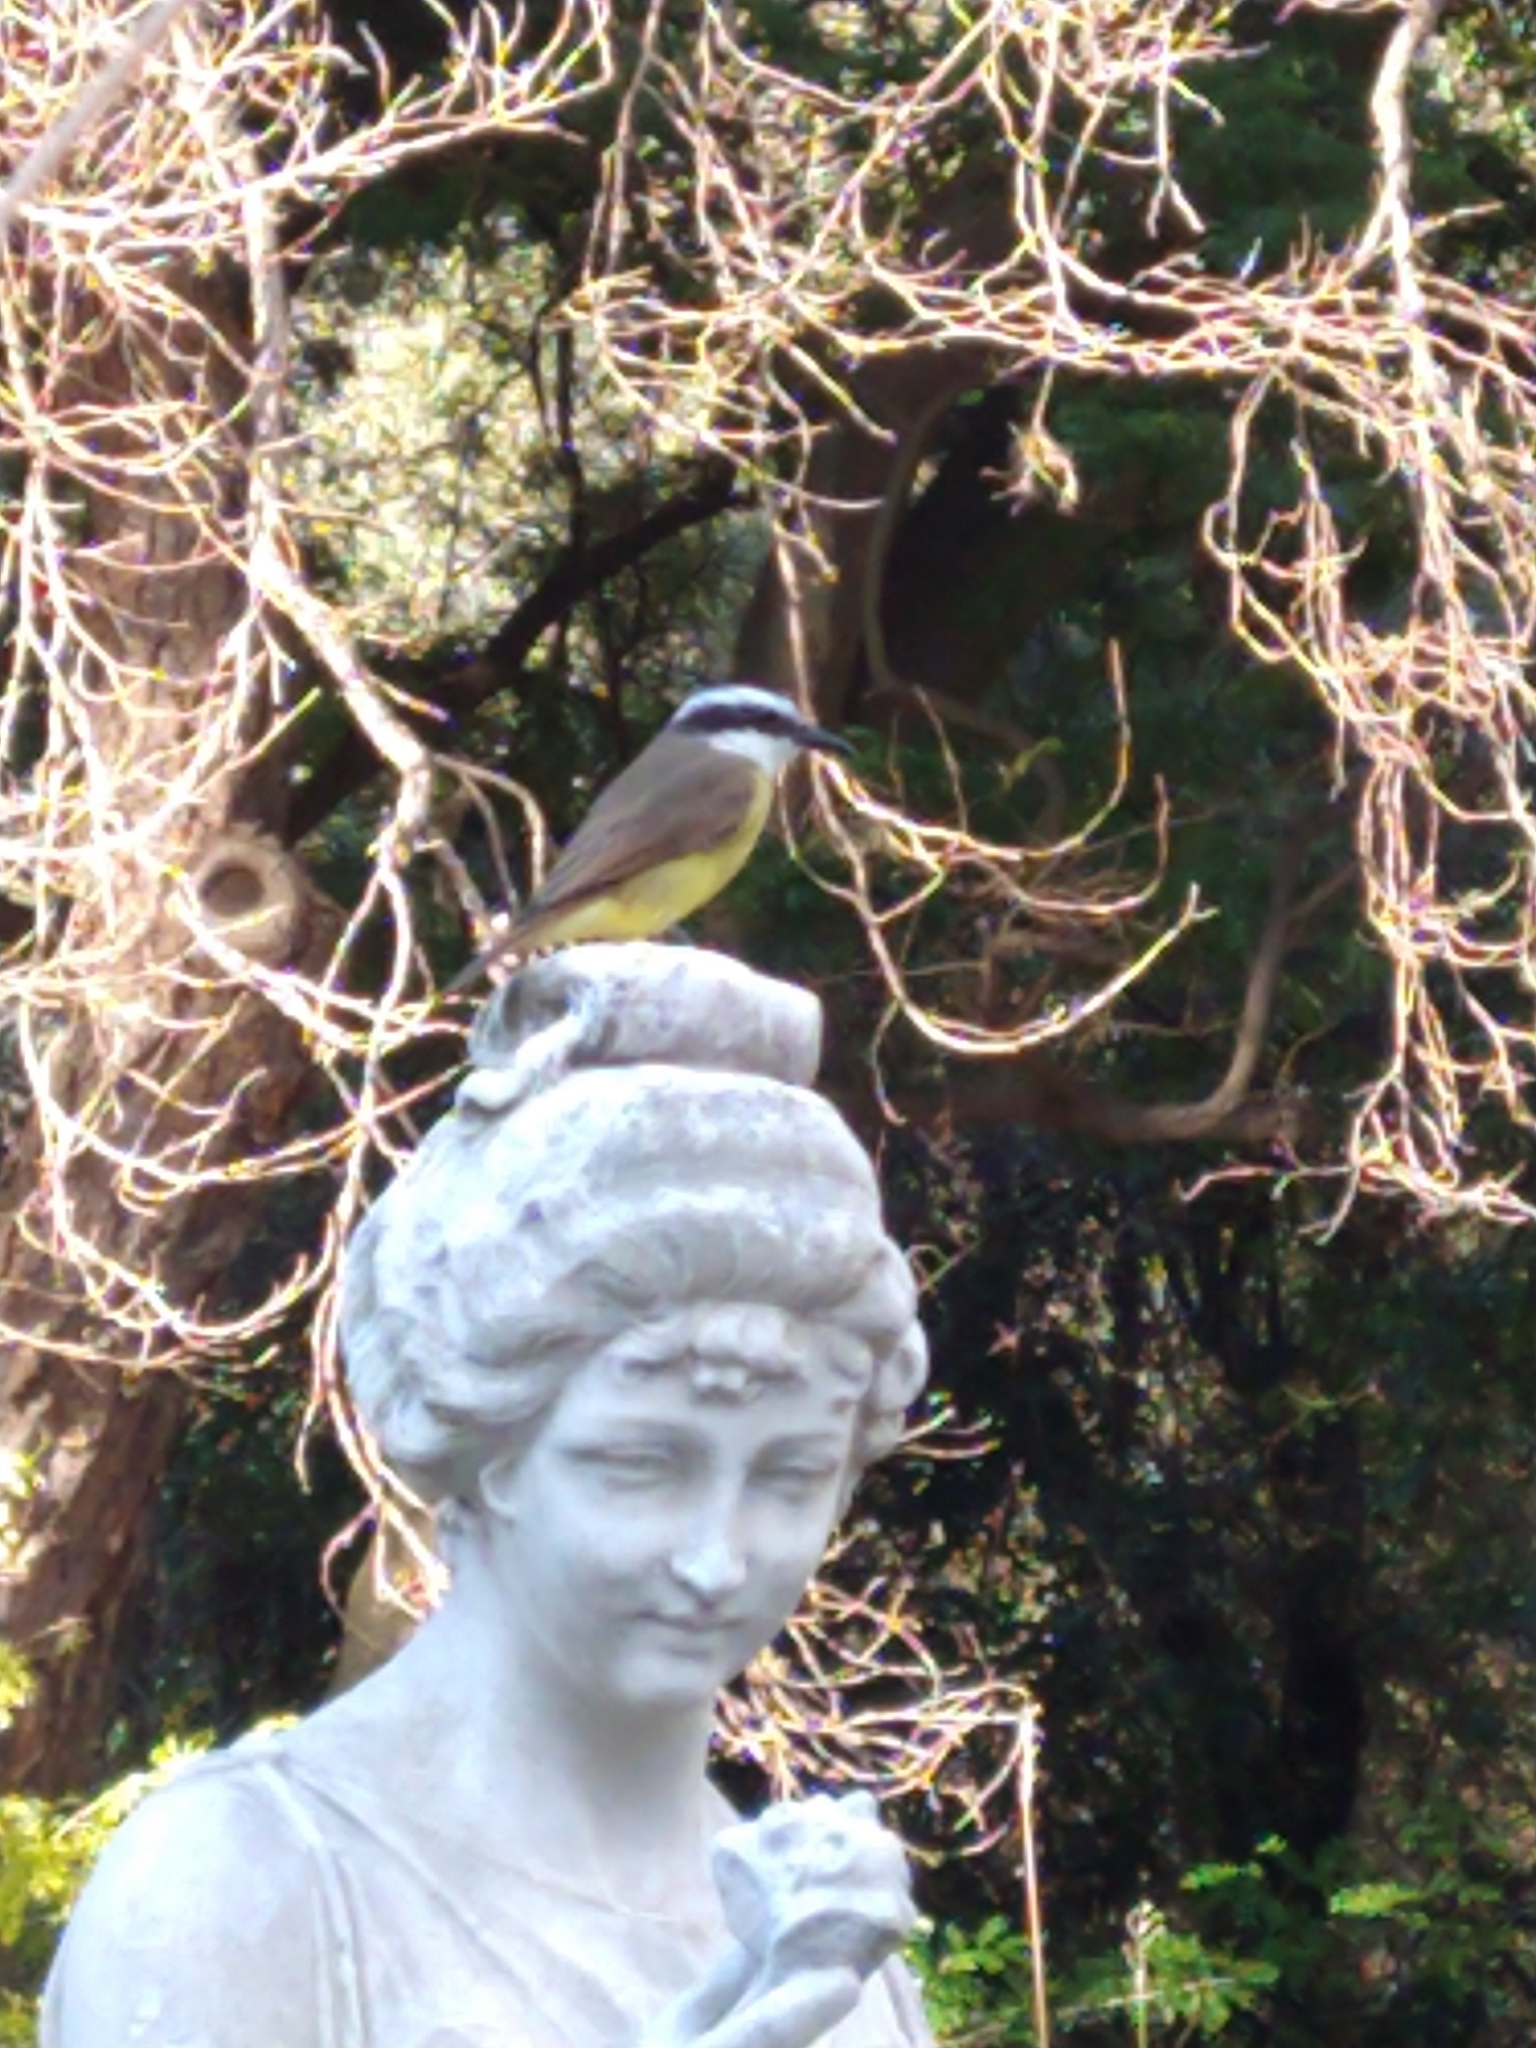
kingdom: Animalia
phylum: Chordata
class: Aves
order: Passeriformes
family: Tyrannidae
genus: Pitangus
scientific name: Pitangus sulphuratus
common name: Great kiskadee
